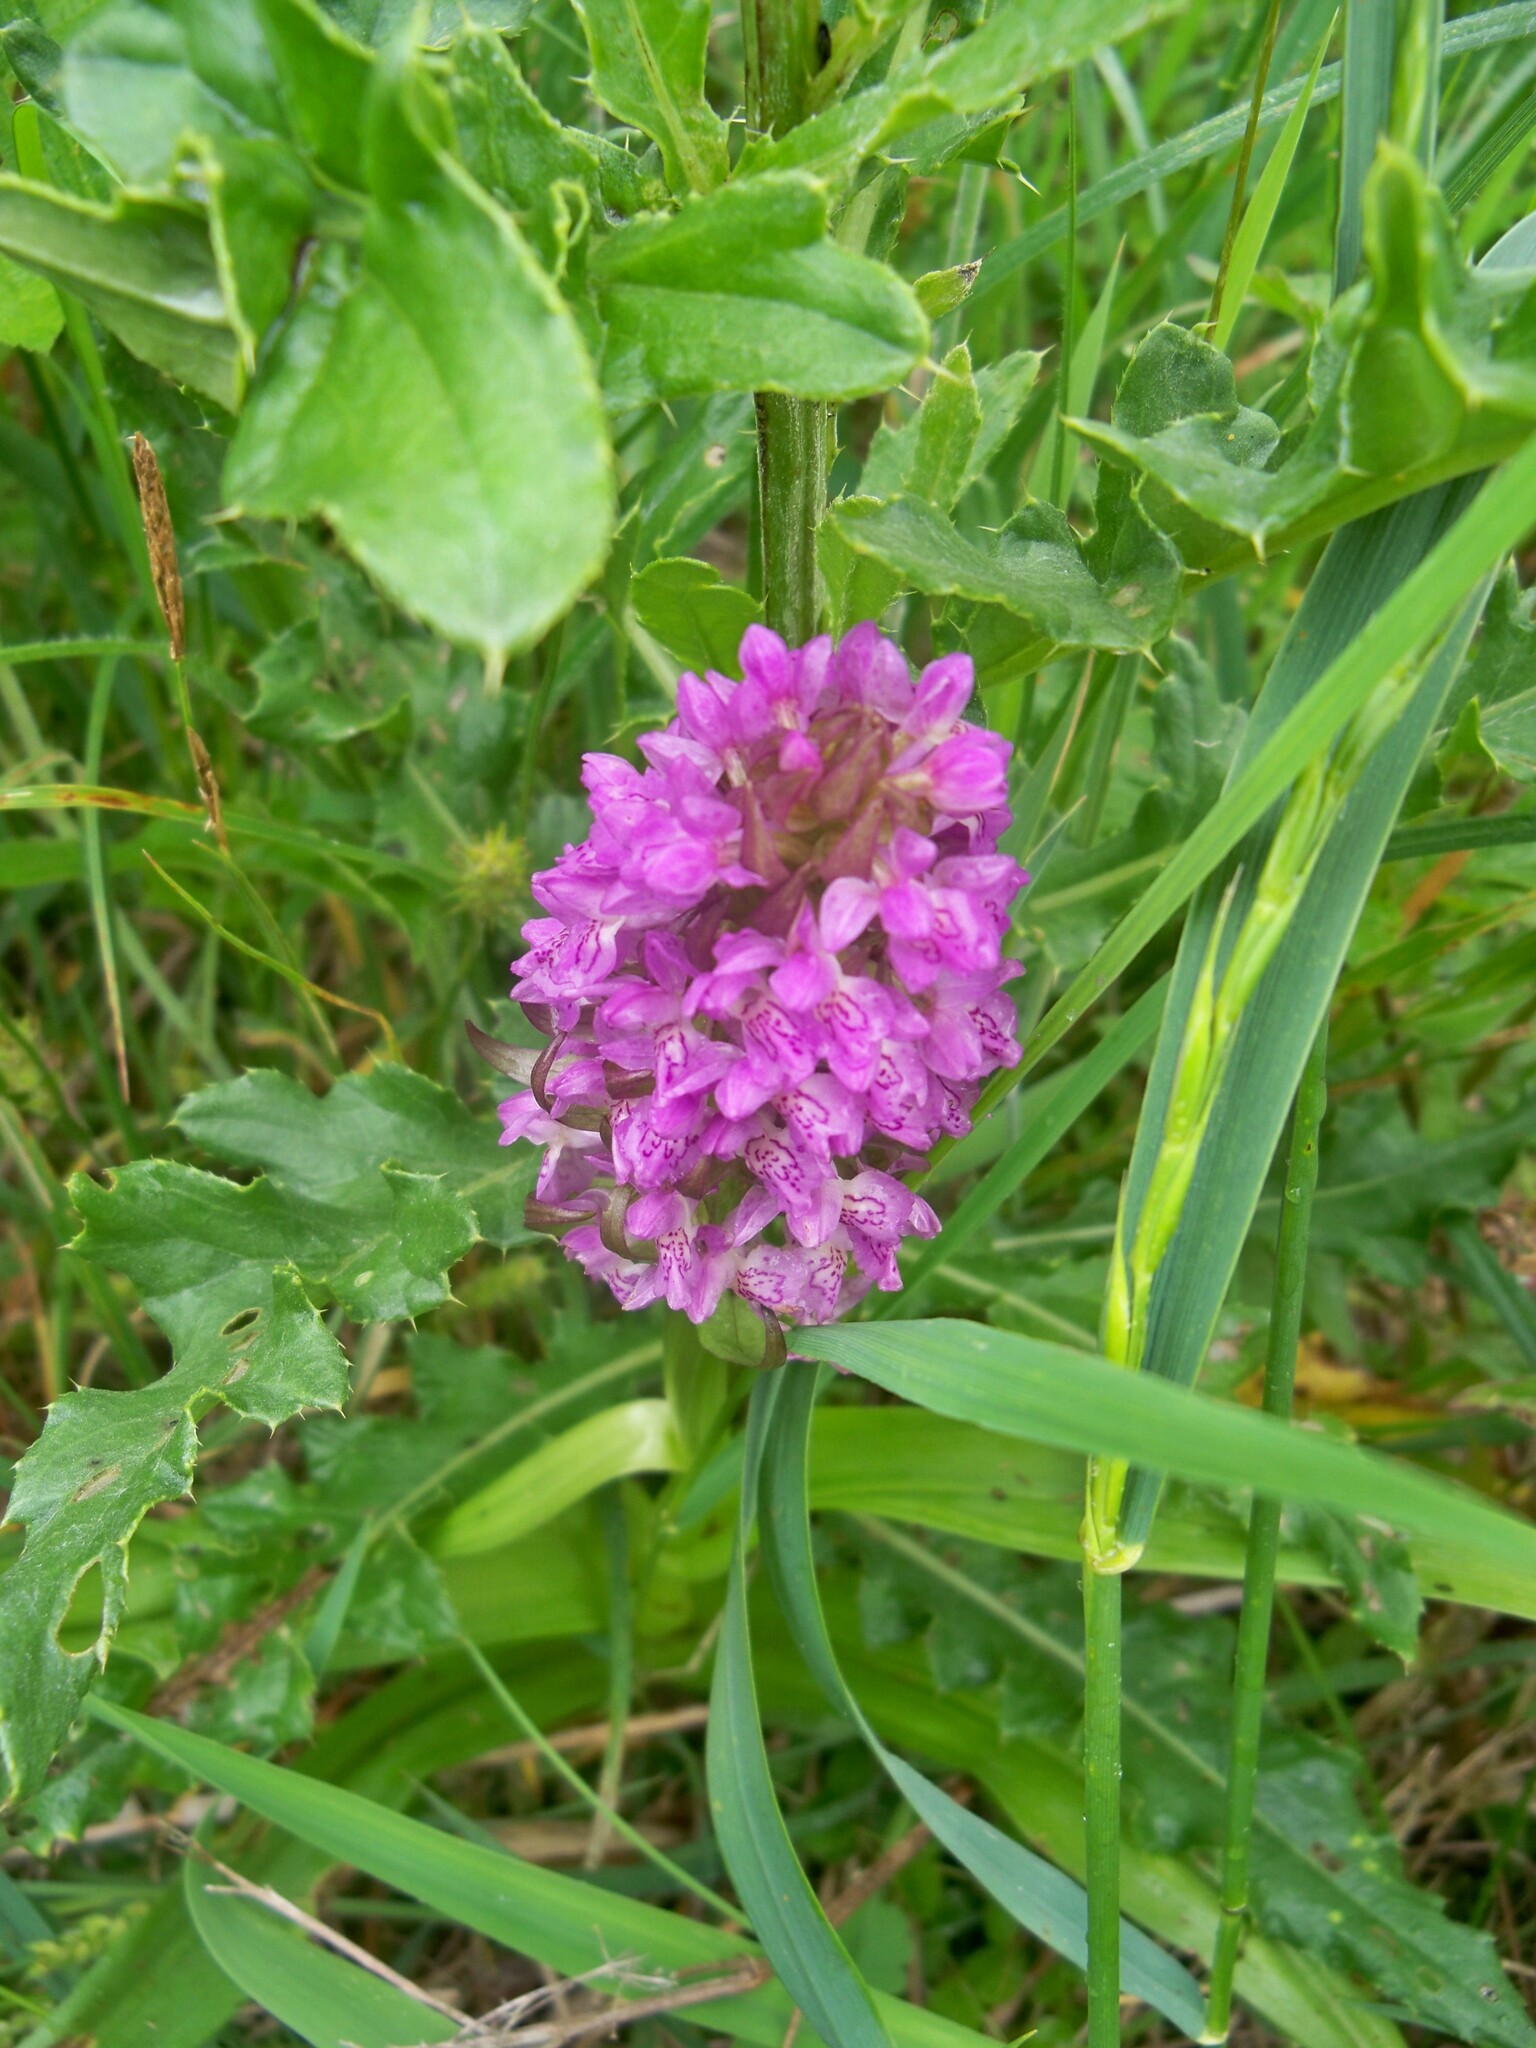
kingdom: Plantae
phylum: Tracheophyta
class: Liliopsida
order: Asparagales
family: Orchidaceae
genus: Dactylorhiza
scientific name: Dactylorhiza incarnata
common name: Early marsh-orchid
